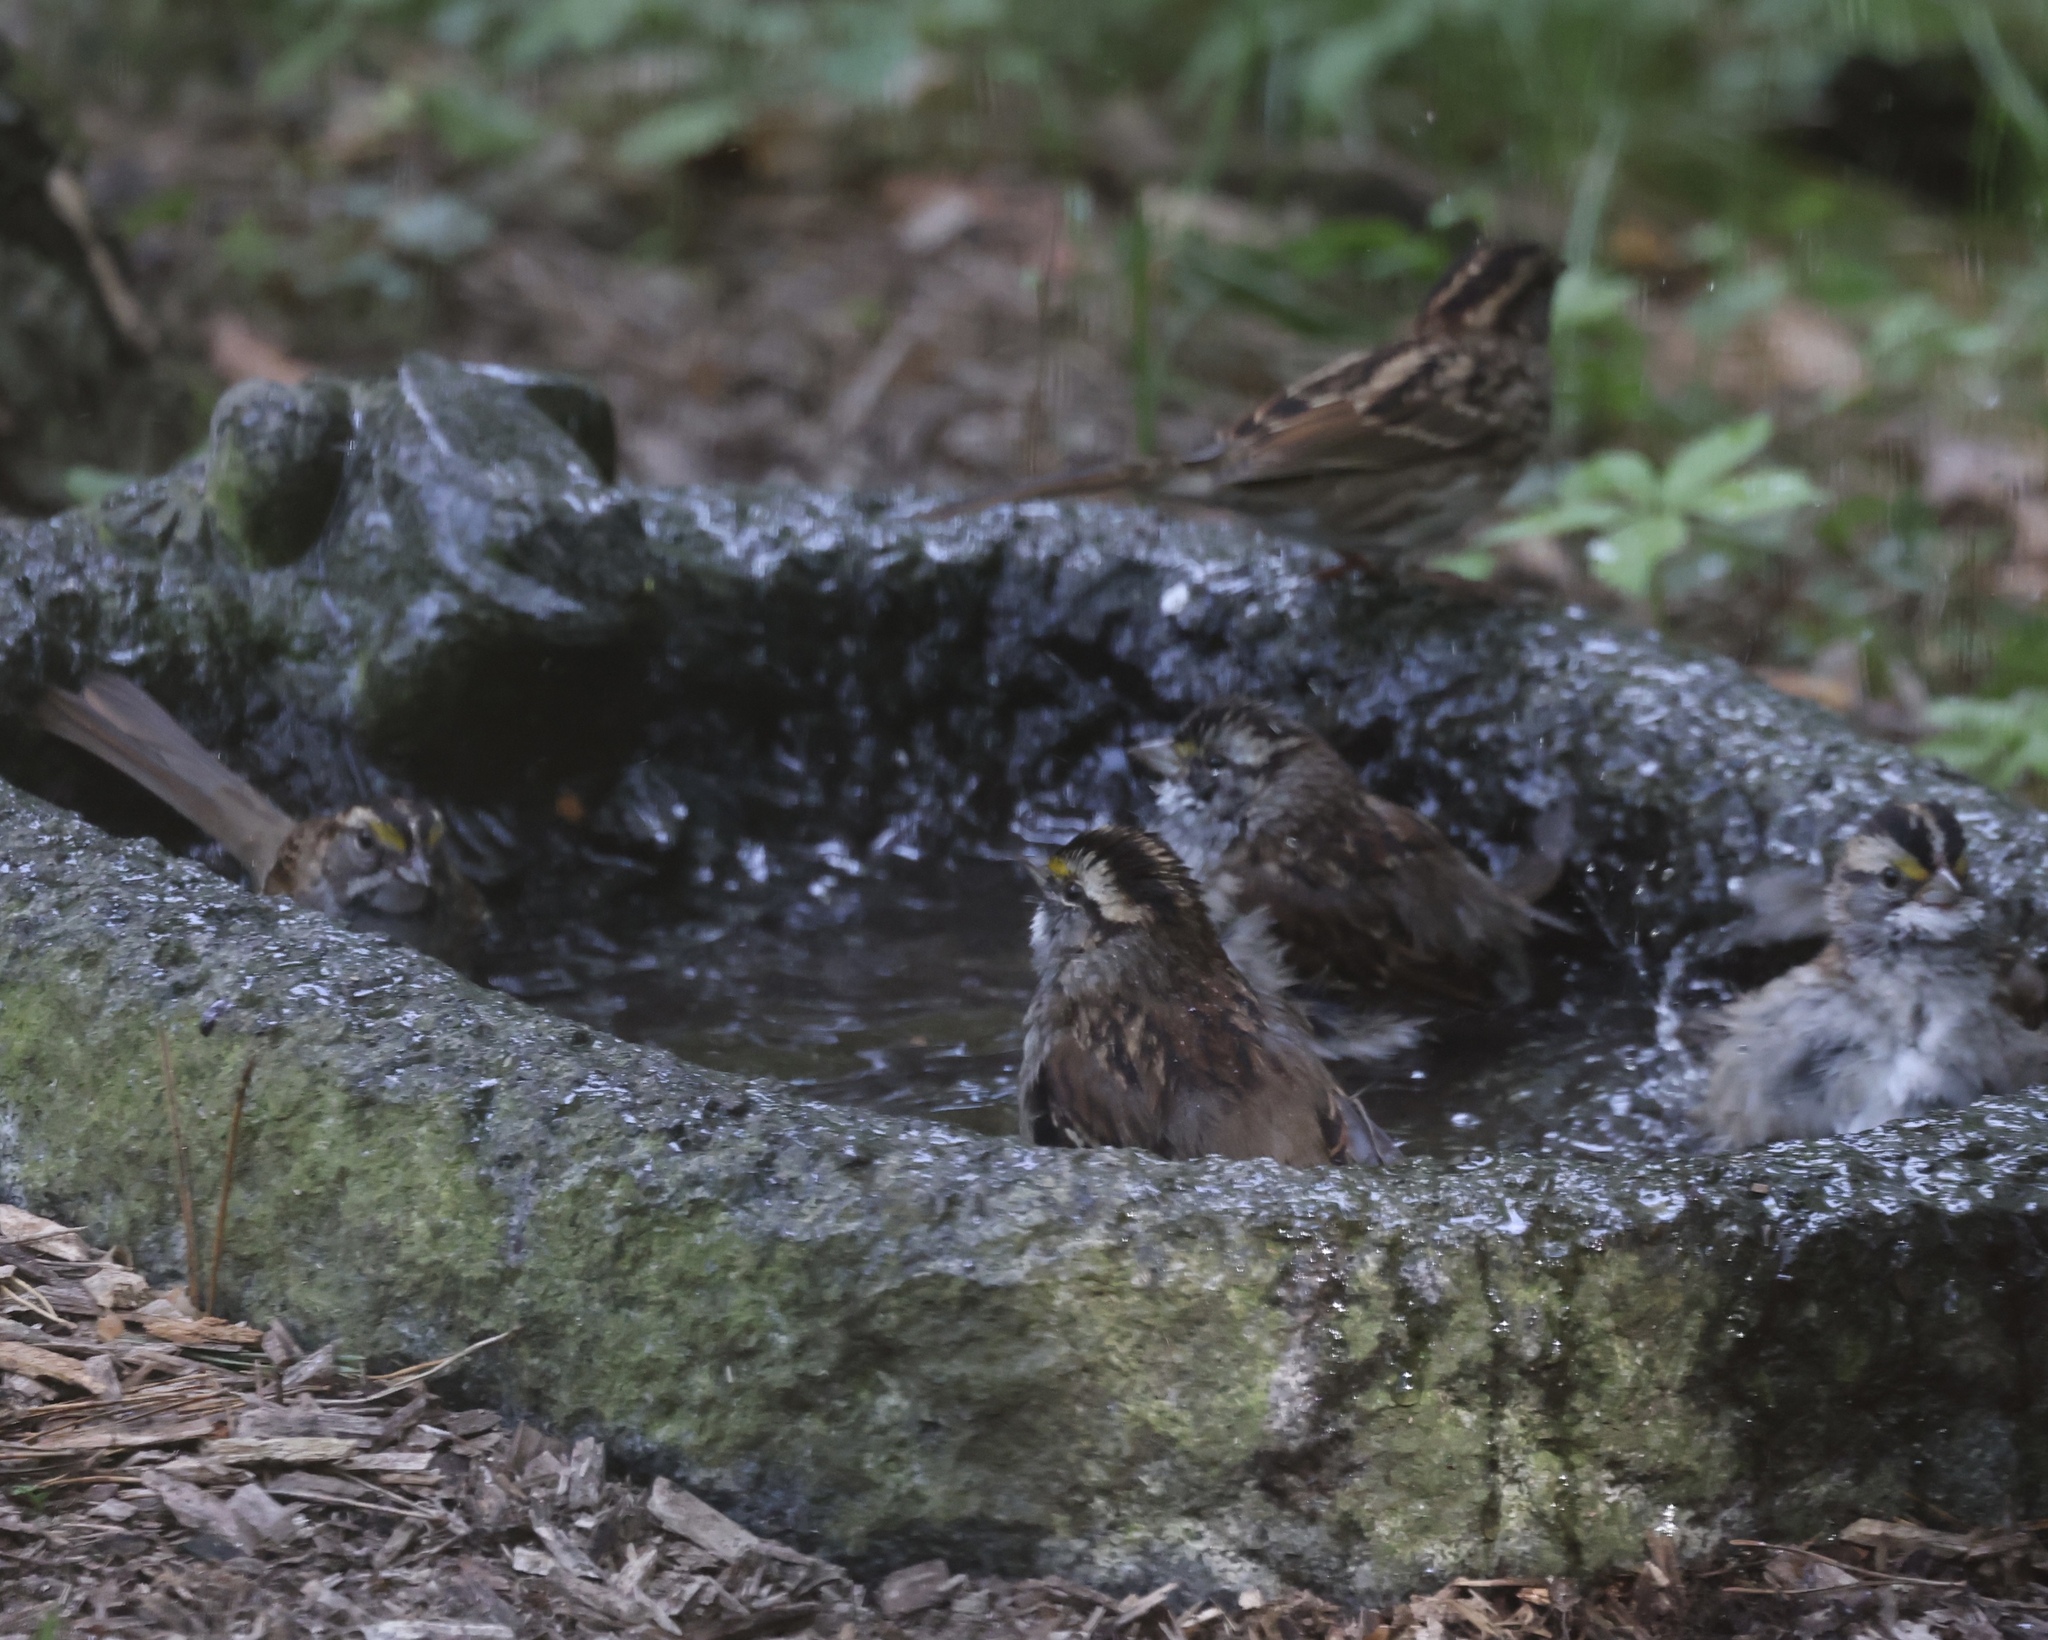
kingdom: Animalia
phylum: Chordata
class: Aves
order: Passeriformes
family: Passerellidae
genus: Zonotrichia
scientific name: Zonotrichia albicollis
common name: White-throated sparrow
